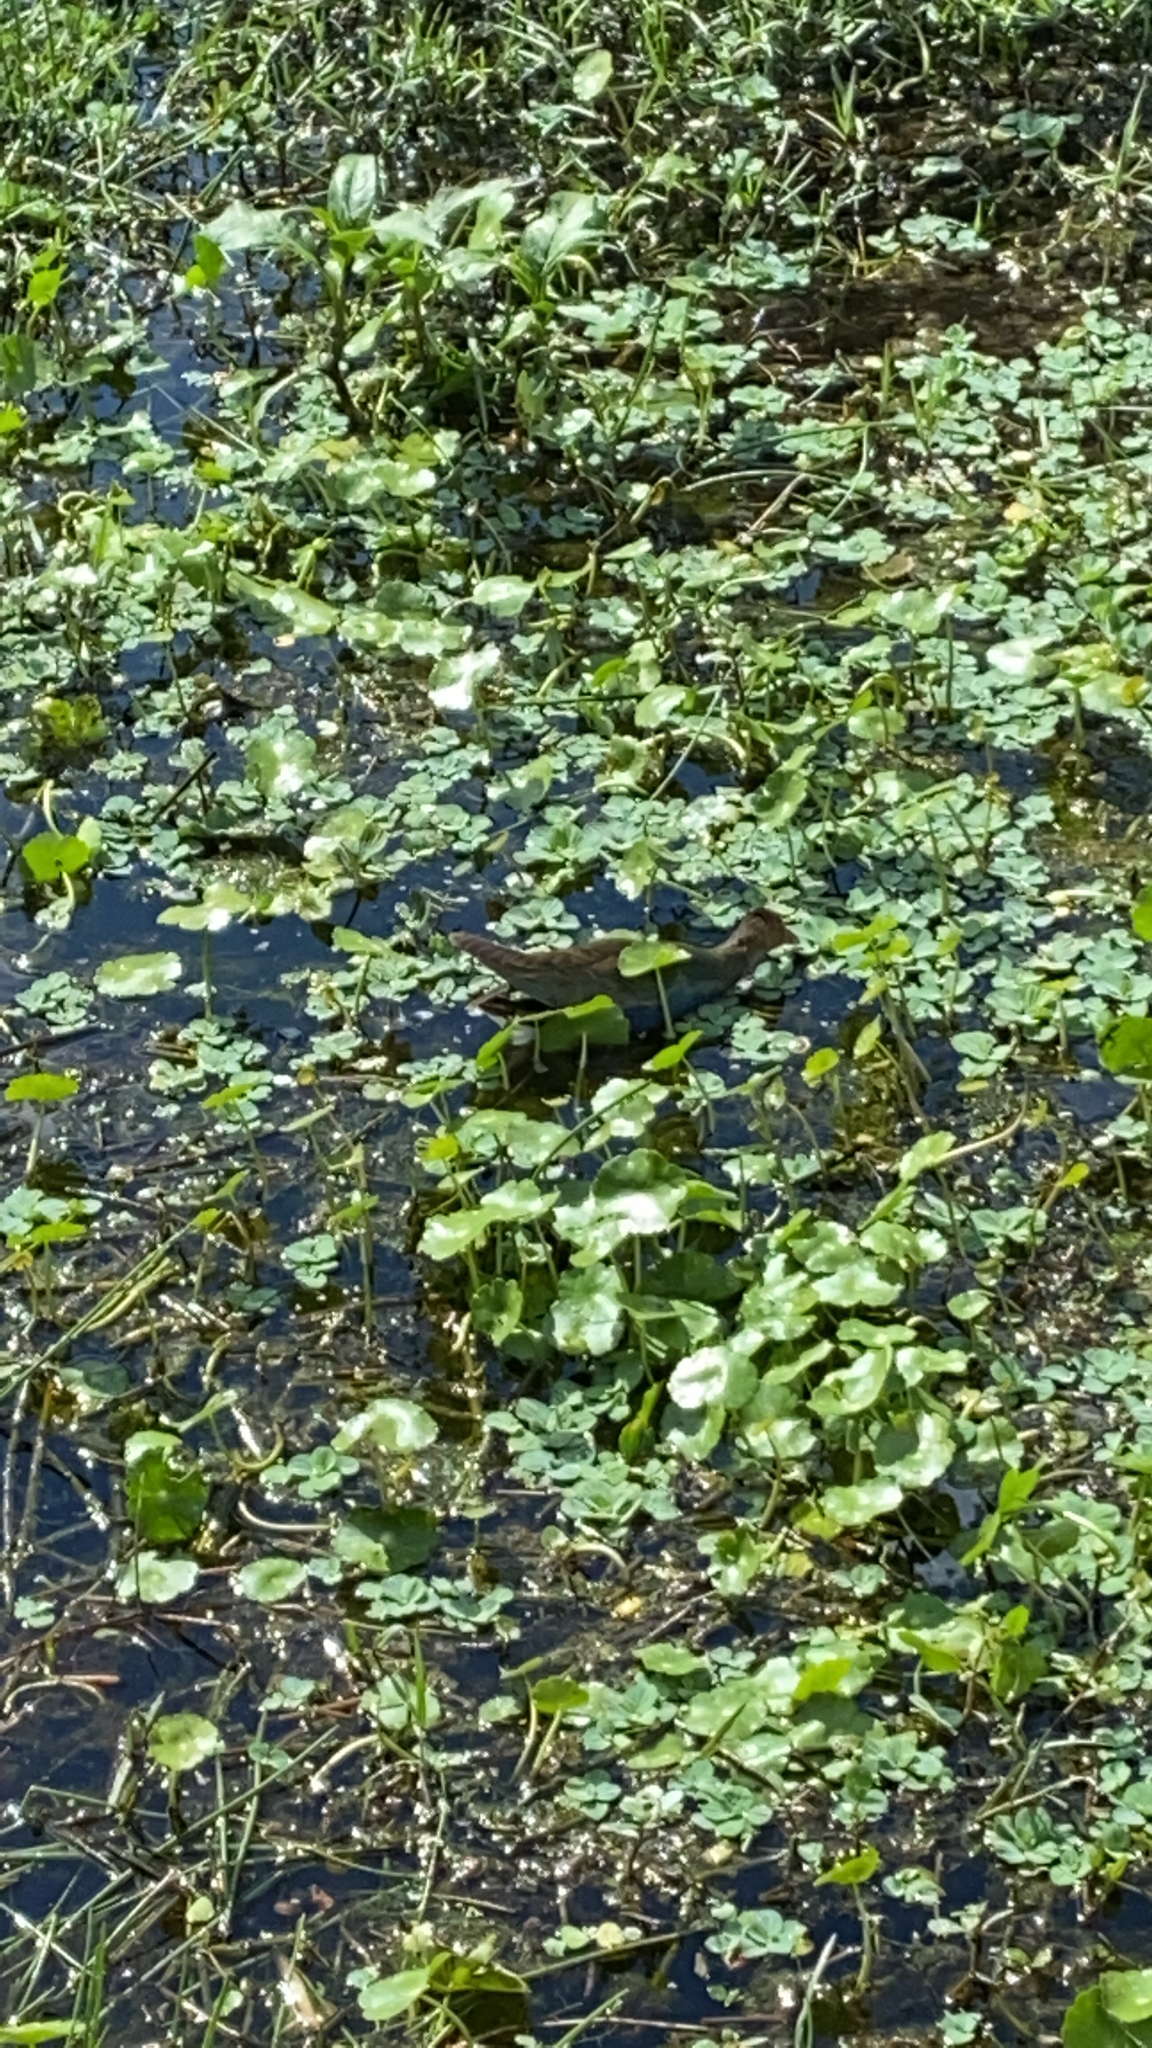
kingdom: Animalia
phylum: Chordata
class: Aves
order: Gruiformes
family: Rallidae
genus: Porphyrio
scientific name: Porphyrio martinica
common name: Purple gallinule
